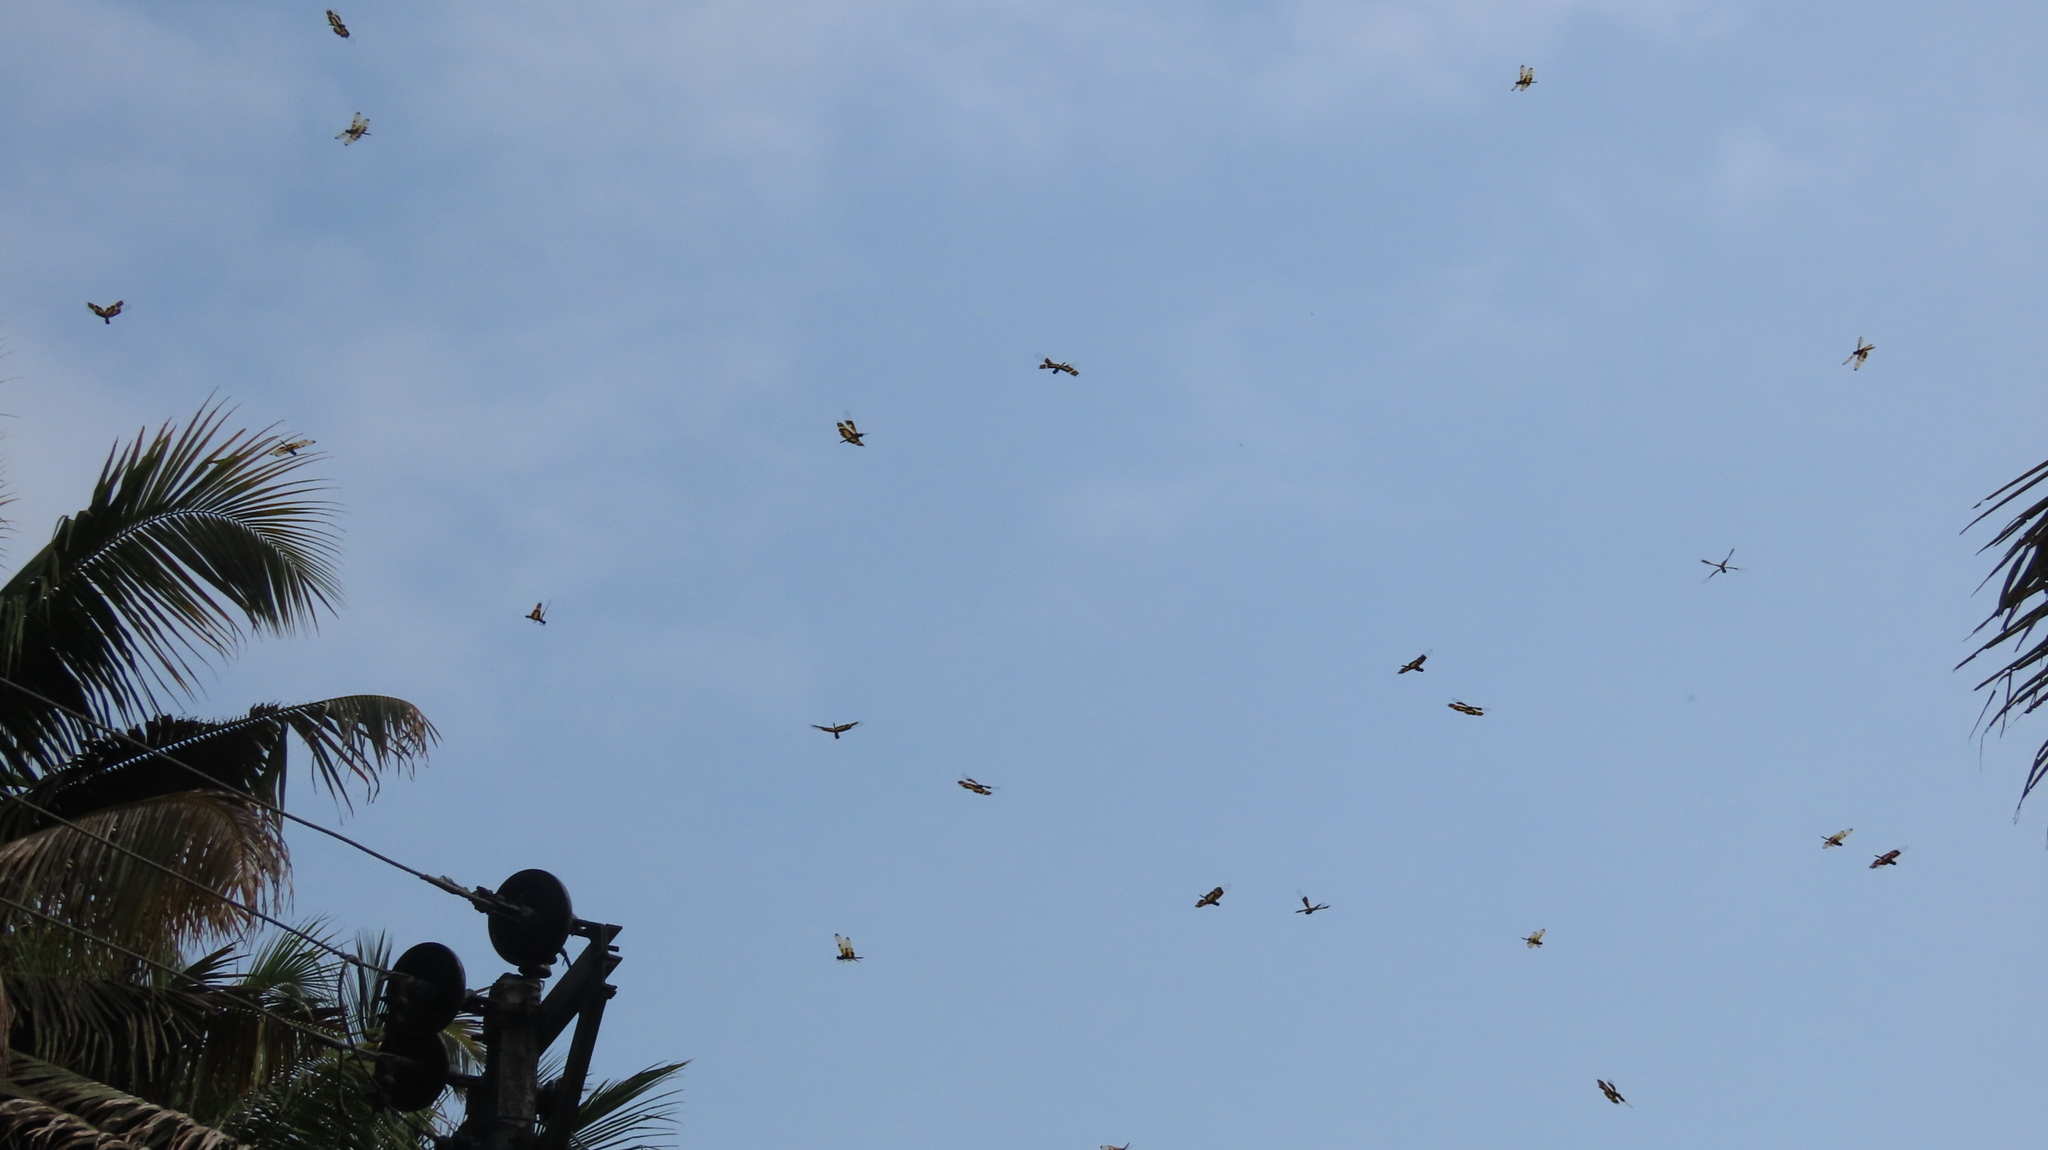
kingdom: Animalia
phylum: Arthropoda
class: Insecta
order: Odonata
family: Libellulidae
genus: Rhyothemis
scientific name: Rhyothemis variegata
